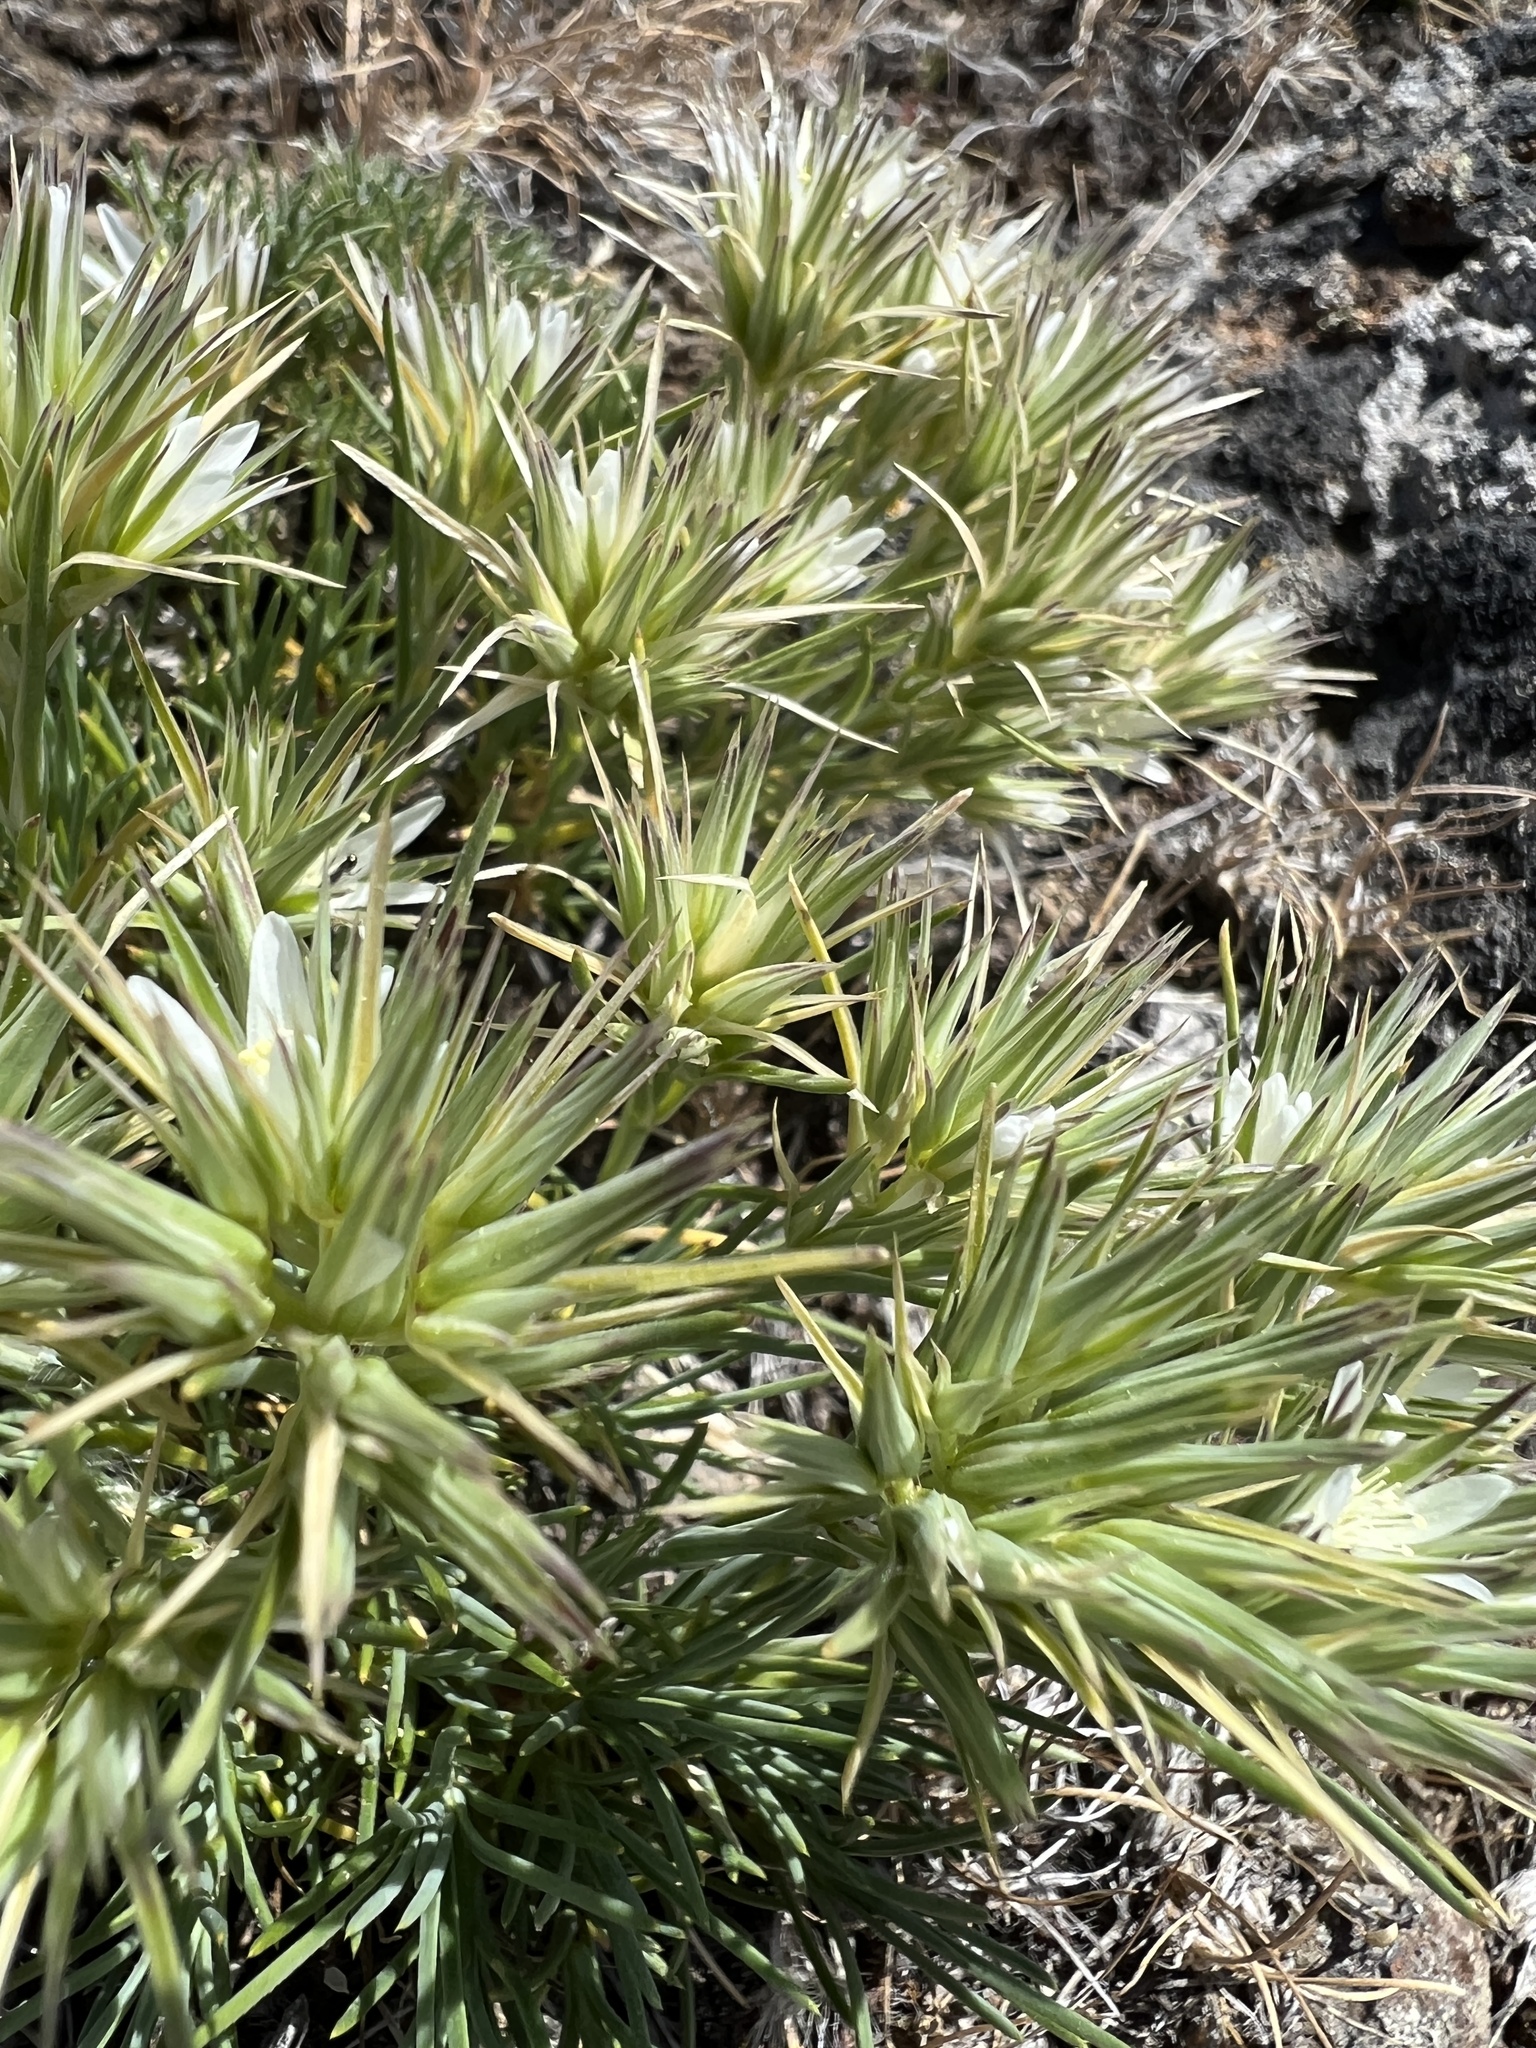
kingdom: Plantae
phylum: Tracheophyta
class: Magnoliopsida
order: Caryophyllales
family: Caryophyllaceae
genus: Eremogone
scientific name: Eremogone franklinii
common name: Franklin's sandwort
